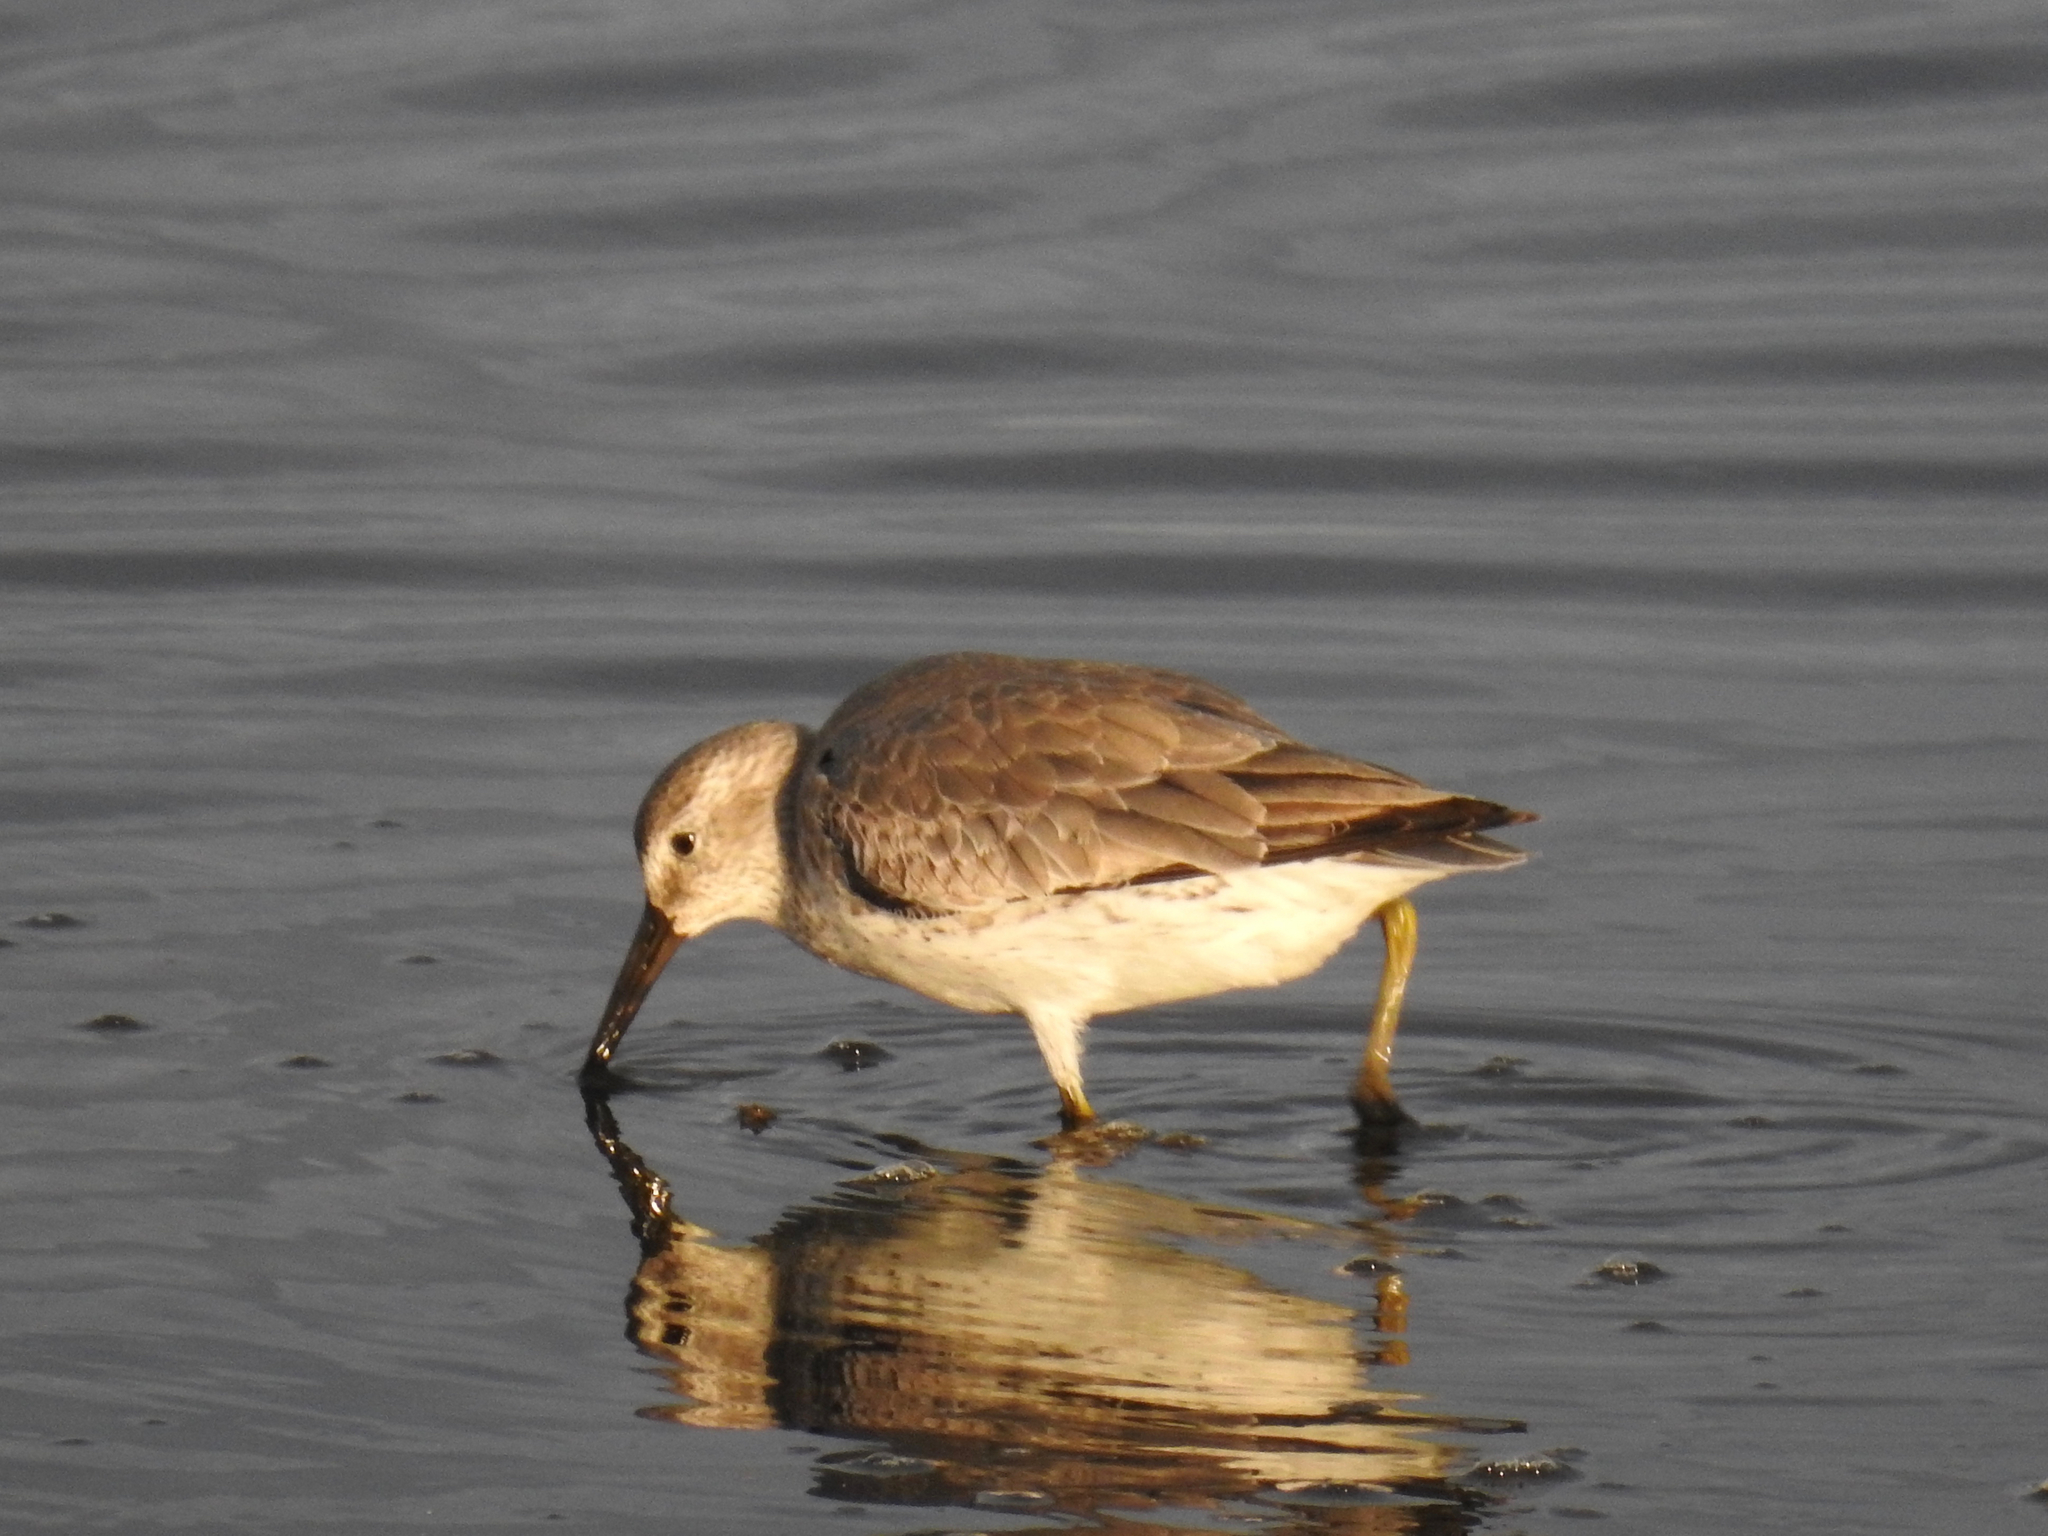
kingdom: Animalia
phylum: Chordata
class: Aves
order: Charadriiformes
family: Scolopacidae
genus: Calidris
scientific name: Calidris canutus
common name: Red knot
